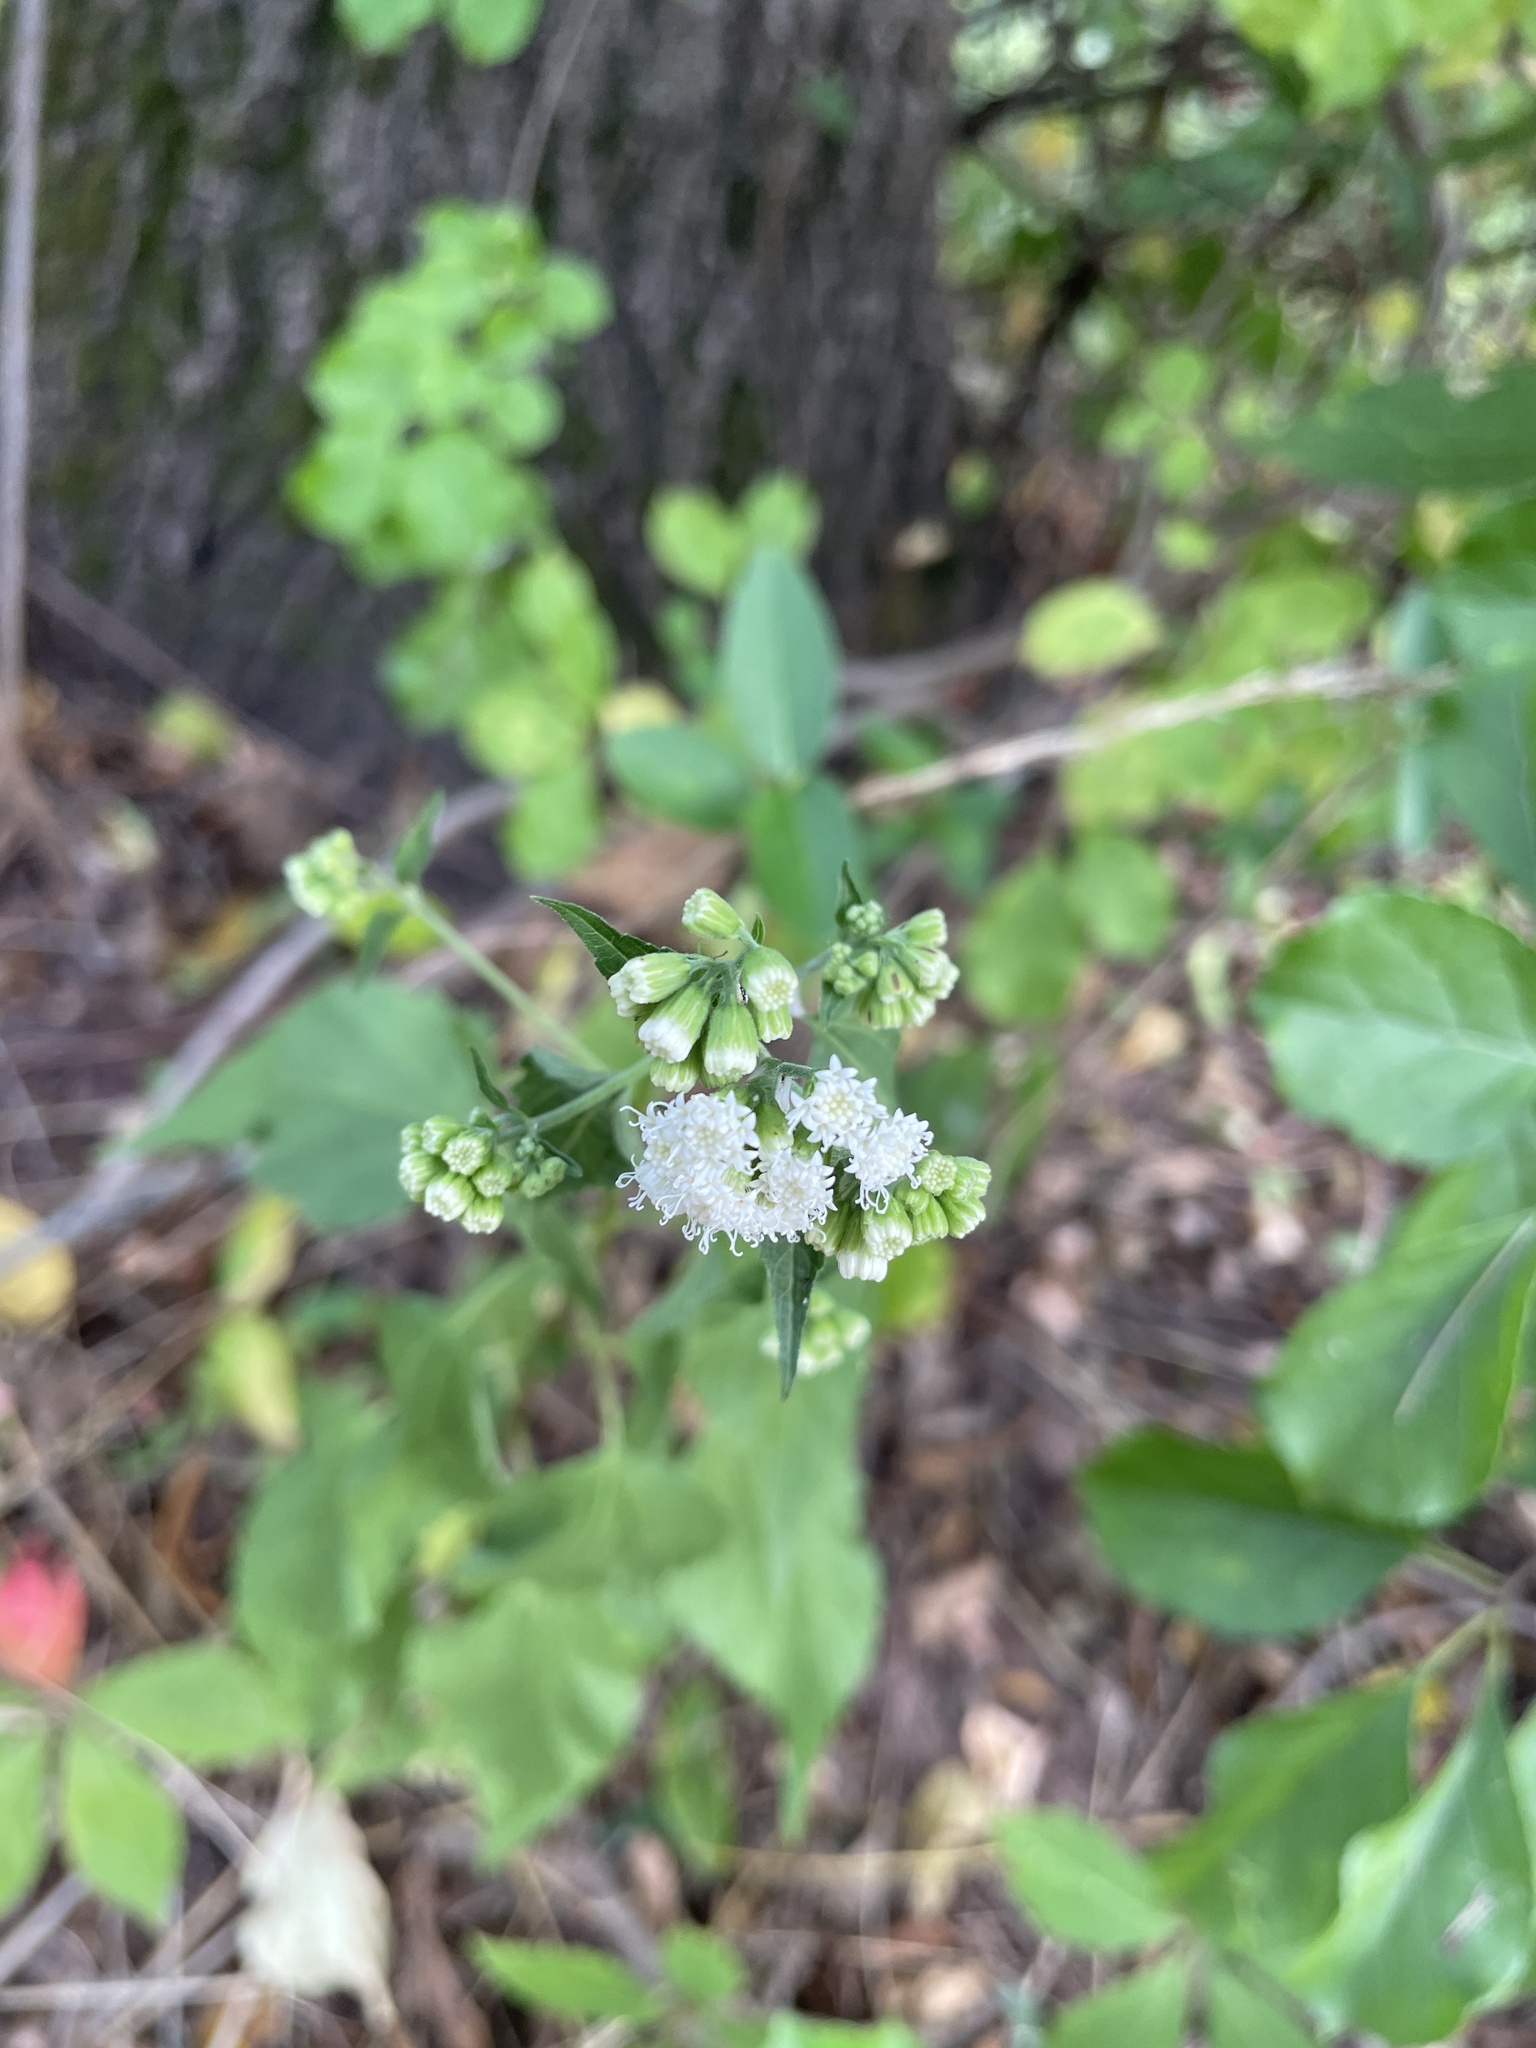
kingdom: Plantae
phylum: Tracheophyta
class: Magnoliopsida
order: Asterales
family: Asteraceae
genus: Ageratina
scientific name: Ageratina altissima
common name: White snakeroot
